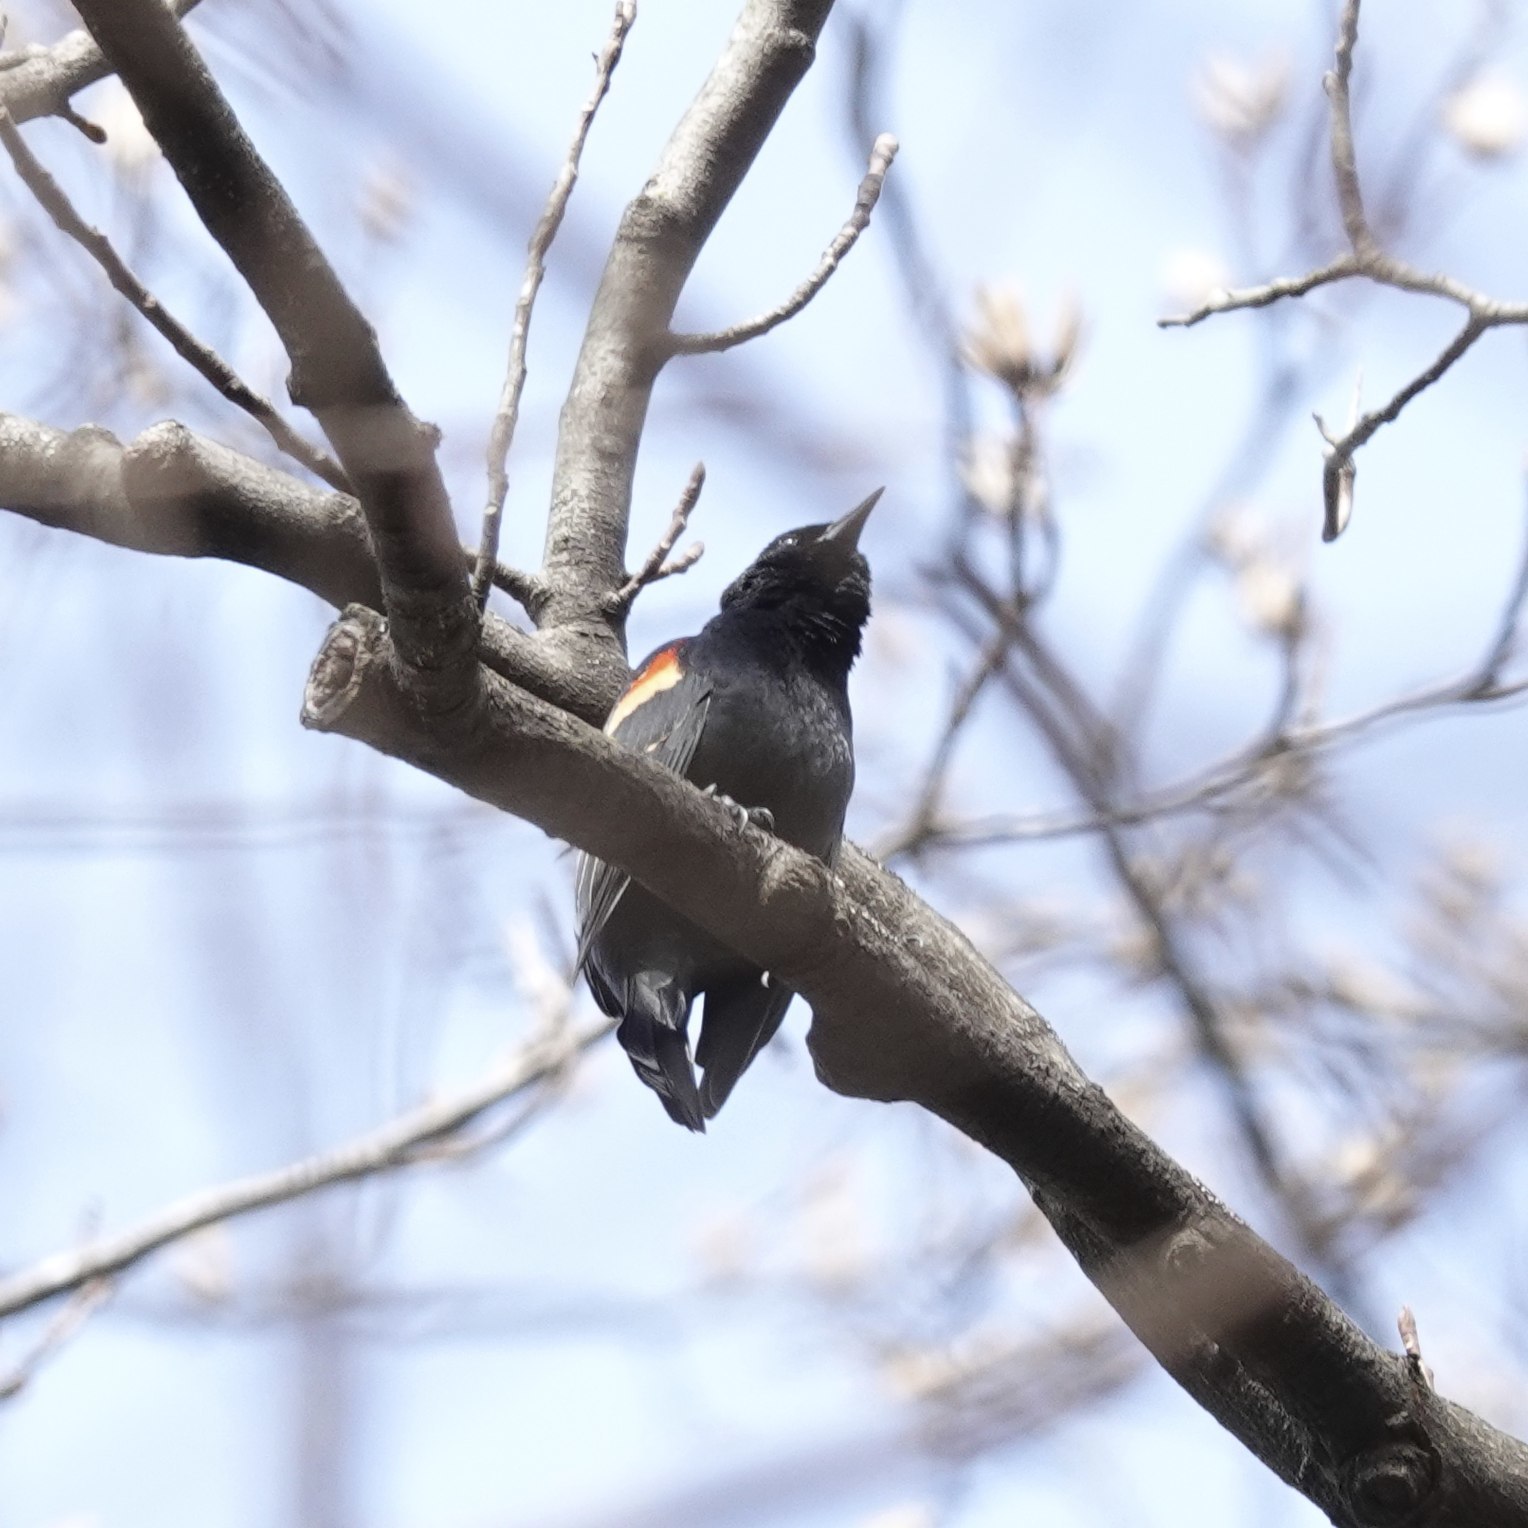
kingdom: Animalia
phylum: Chordata
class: Aves
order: Passeriformes
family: Icteridae
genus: Agelaius
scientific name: Agelaius phoeniceus
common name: Red-winged blackbird
